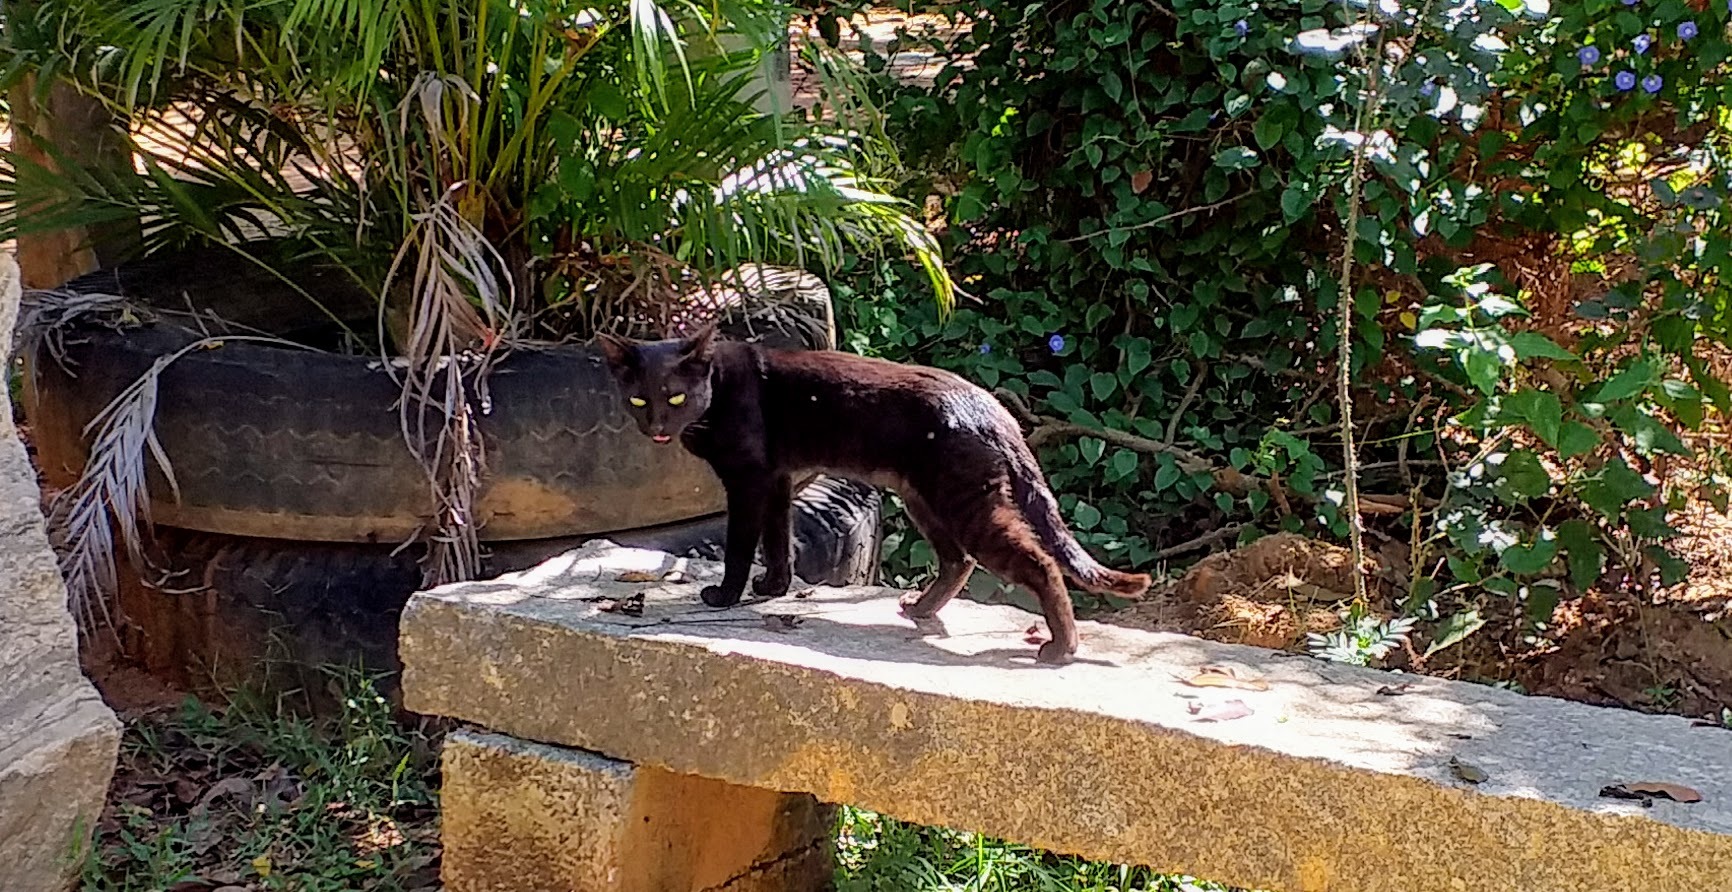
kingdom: Animalia
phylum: Chordata
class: Mammalia
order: Carnivora
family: Felidae
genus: Felis
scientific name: Felis catus
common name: Domestic cat
